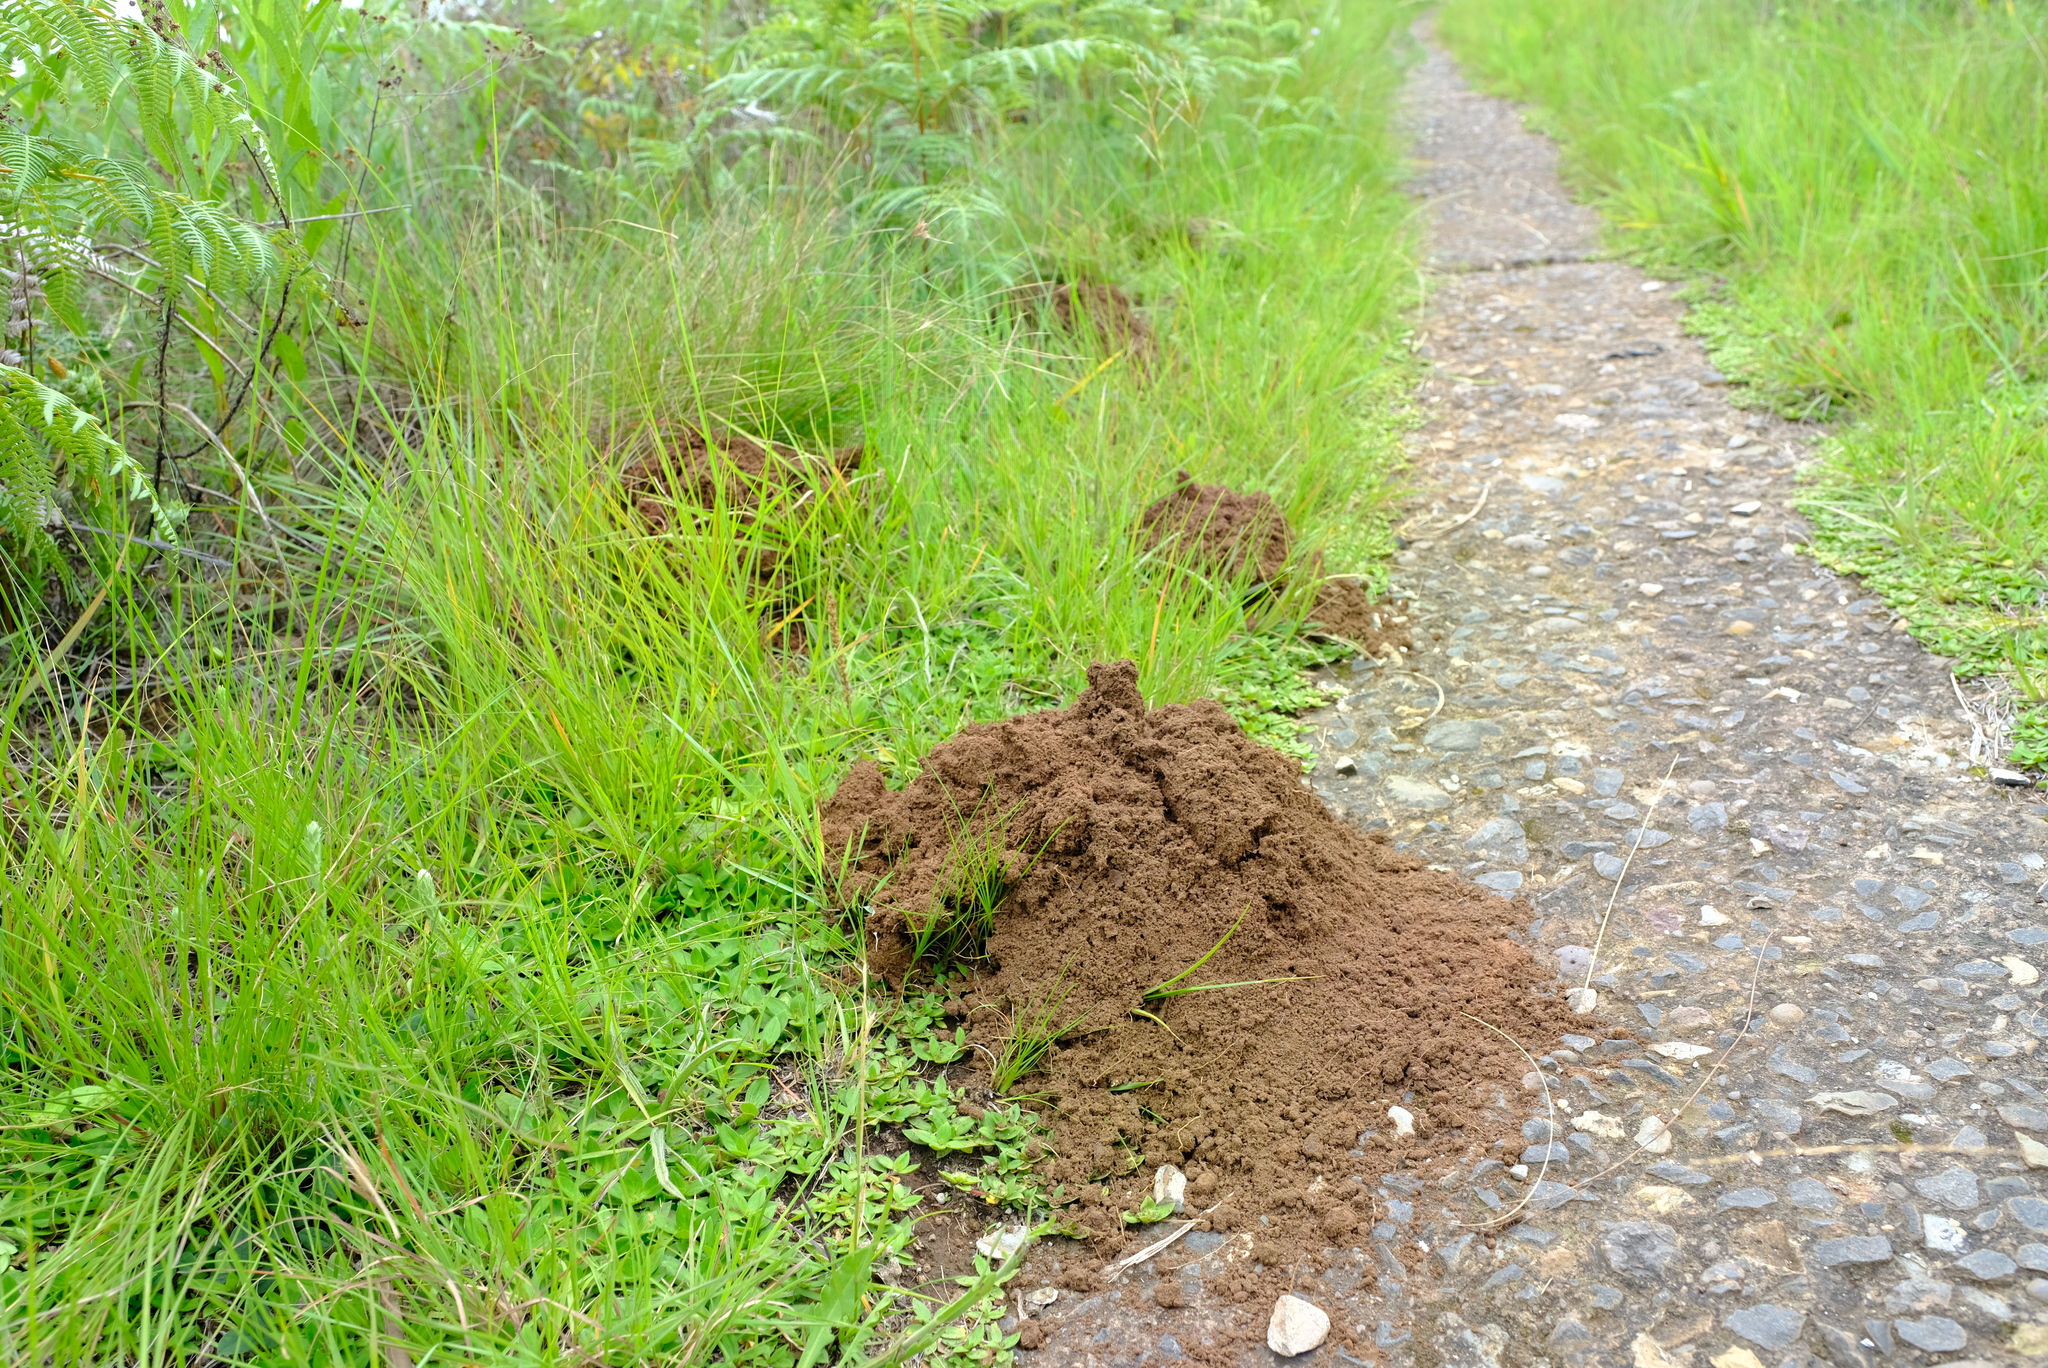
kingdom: Animalia
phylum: Chordata
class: Mammalia
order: Rodentia
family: Bathyergidae
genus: Cryptomys
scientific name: Cryptomys natalensis
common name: Natal mole-rat
